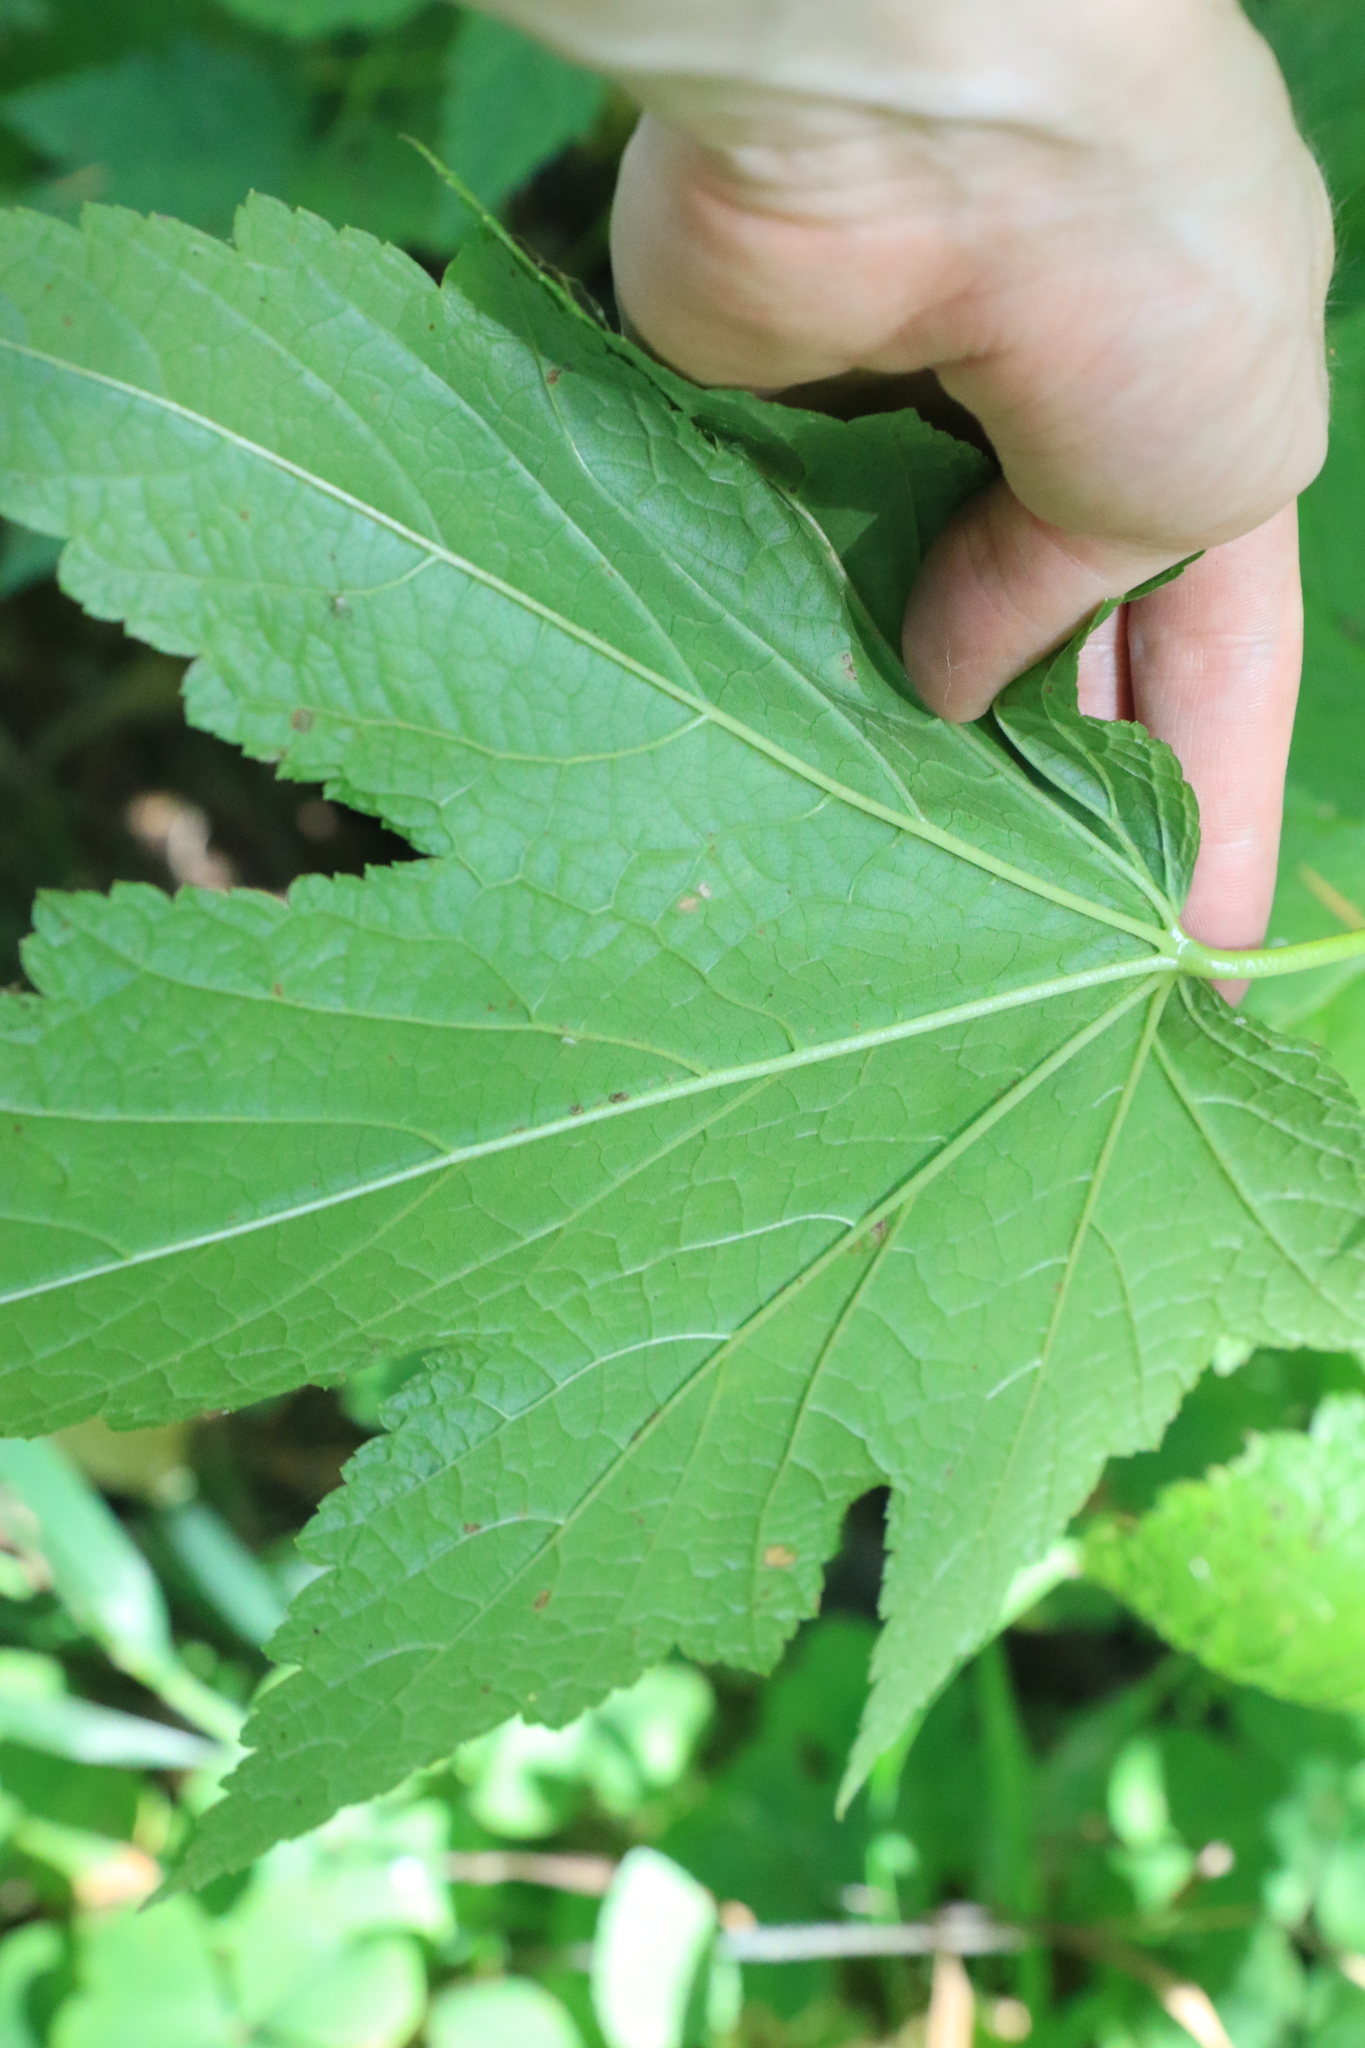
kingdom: Plantae
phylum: Tracheophyta
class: Magnoliopsida
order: Saxifragales
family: Grossulariaceae
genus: Ribes
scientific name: Ribes bracteosum
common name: California black currant
